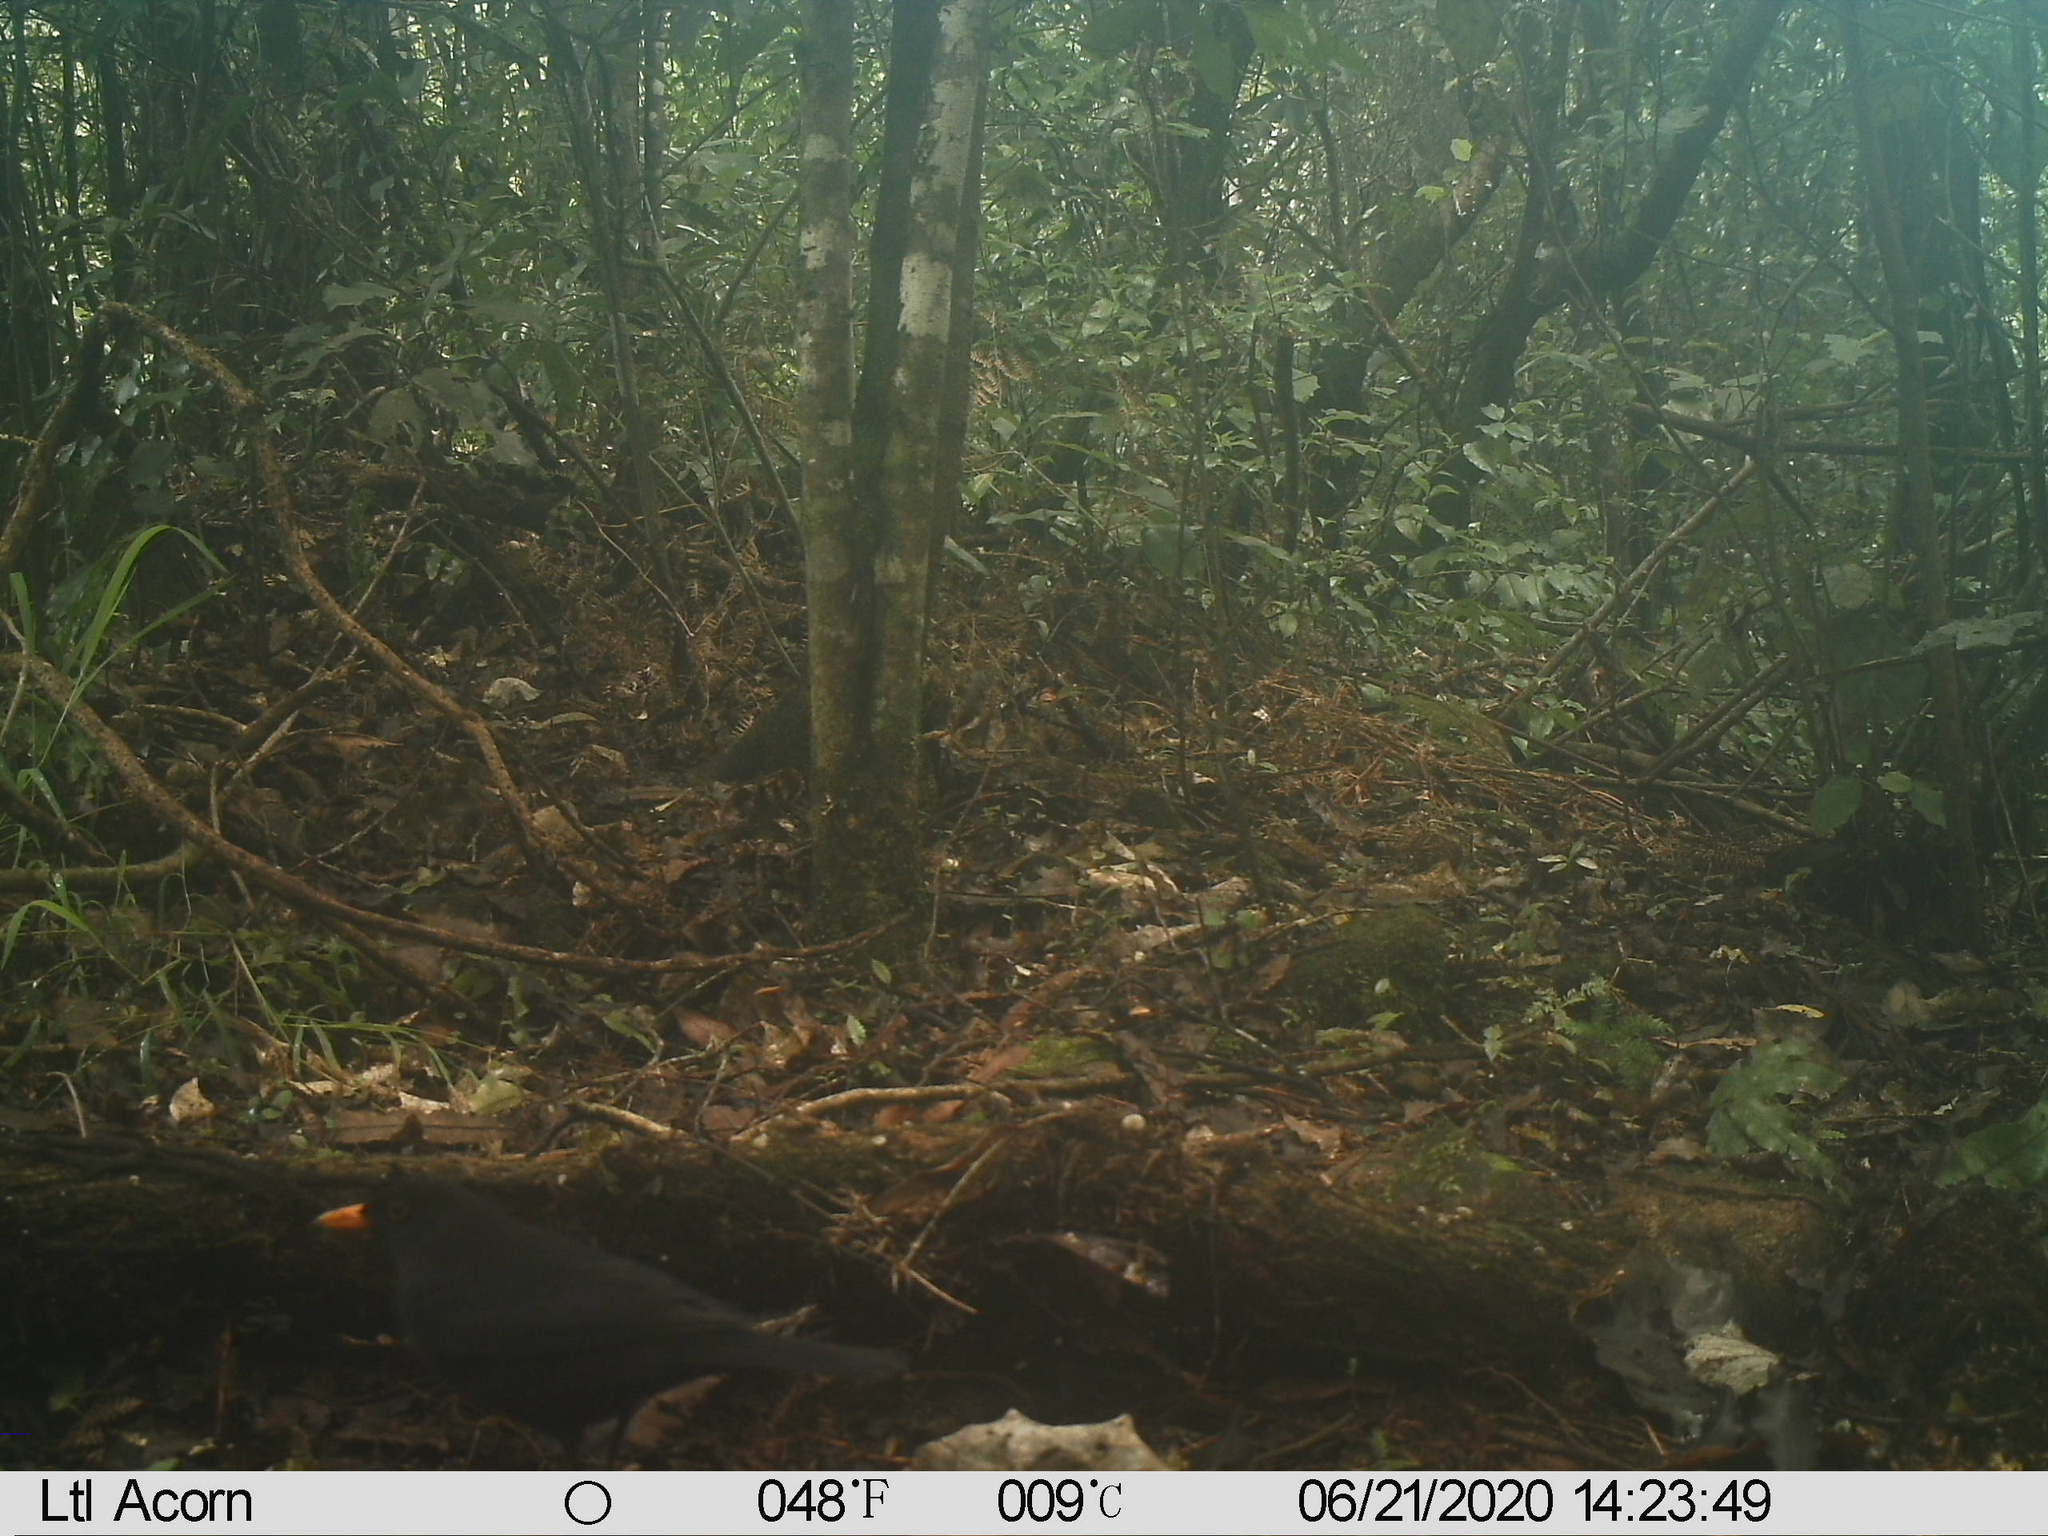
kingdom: Animalia
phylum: Chordata
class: Aves
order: Passeriformes
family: Turdidae
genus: Turdus
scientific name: Turdus merula
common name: Common blackbird
